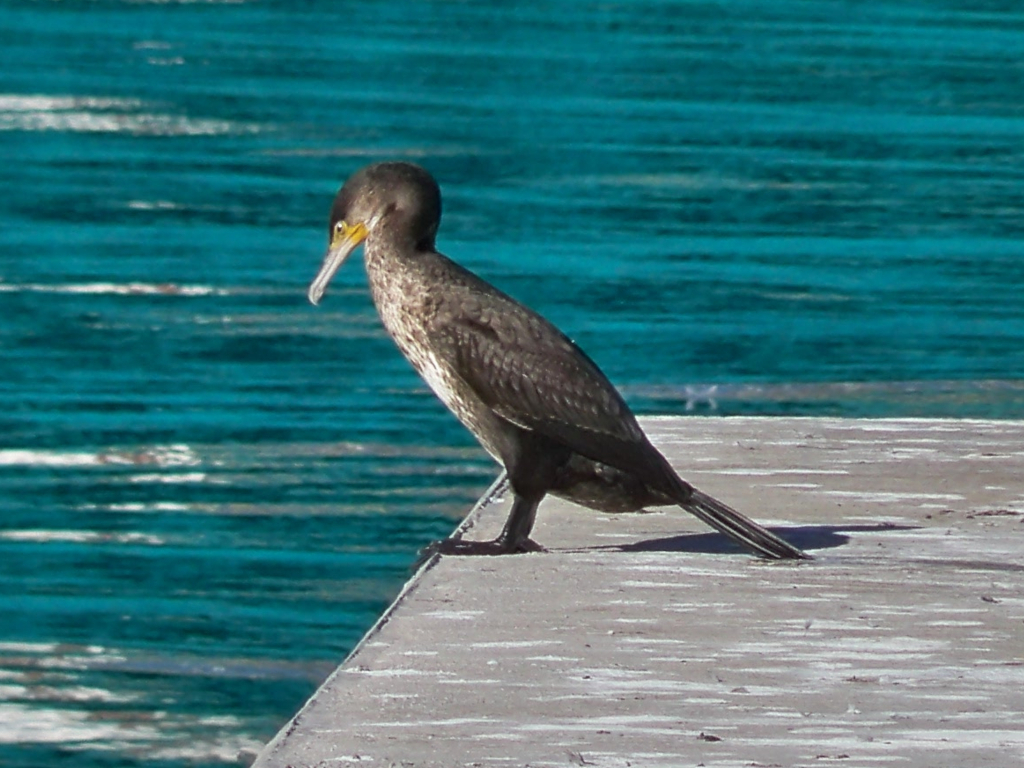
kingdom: Animalia
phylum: Chordata
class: Aves
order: Suliformes
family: Phalacrocoracidae
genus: Phalacrocorax
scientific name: Phalacrocorax carbo
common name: Great cormorant
